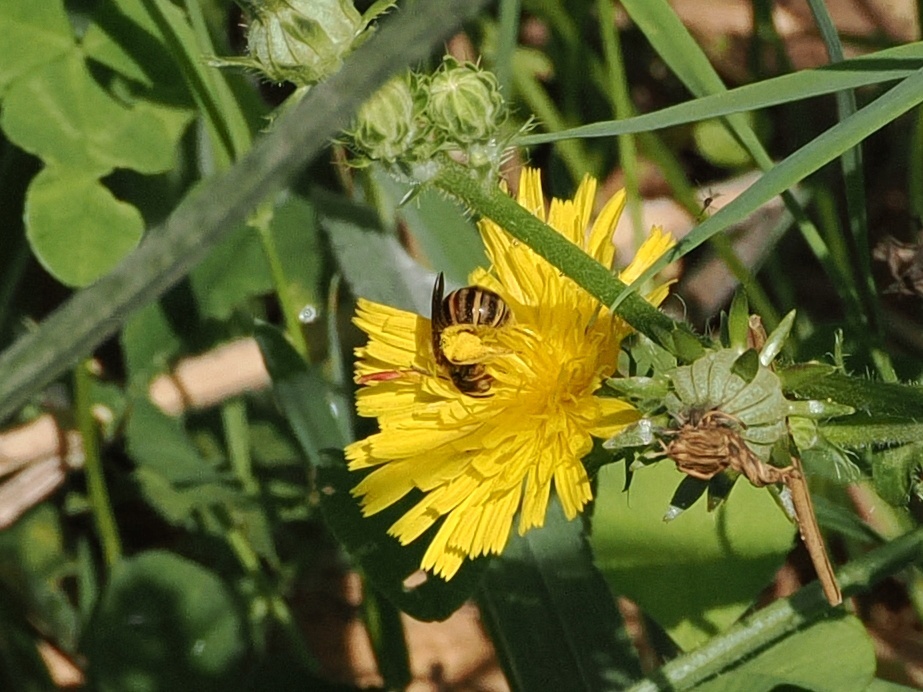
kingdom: Animalia
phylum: Arthropoda
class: Insecta
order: Hymenoptera
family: Halictidae
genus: Halictus
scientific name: Halictus scabiosae
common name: Great banded furrow bee
